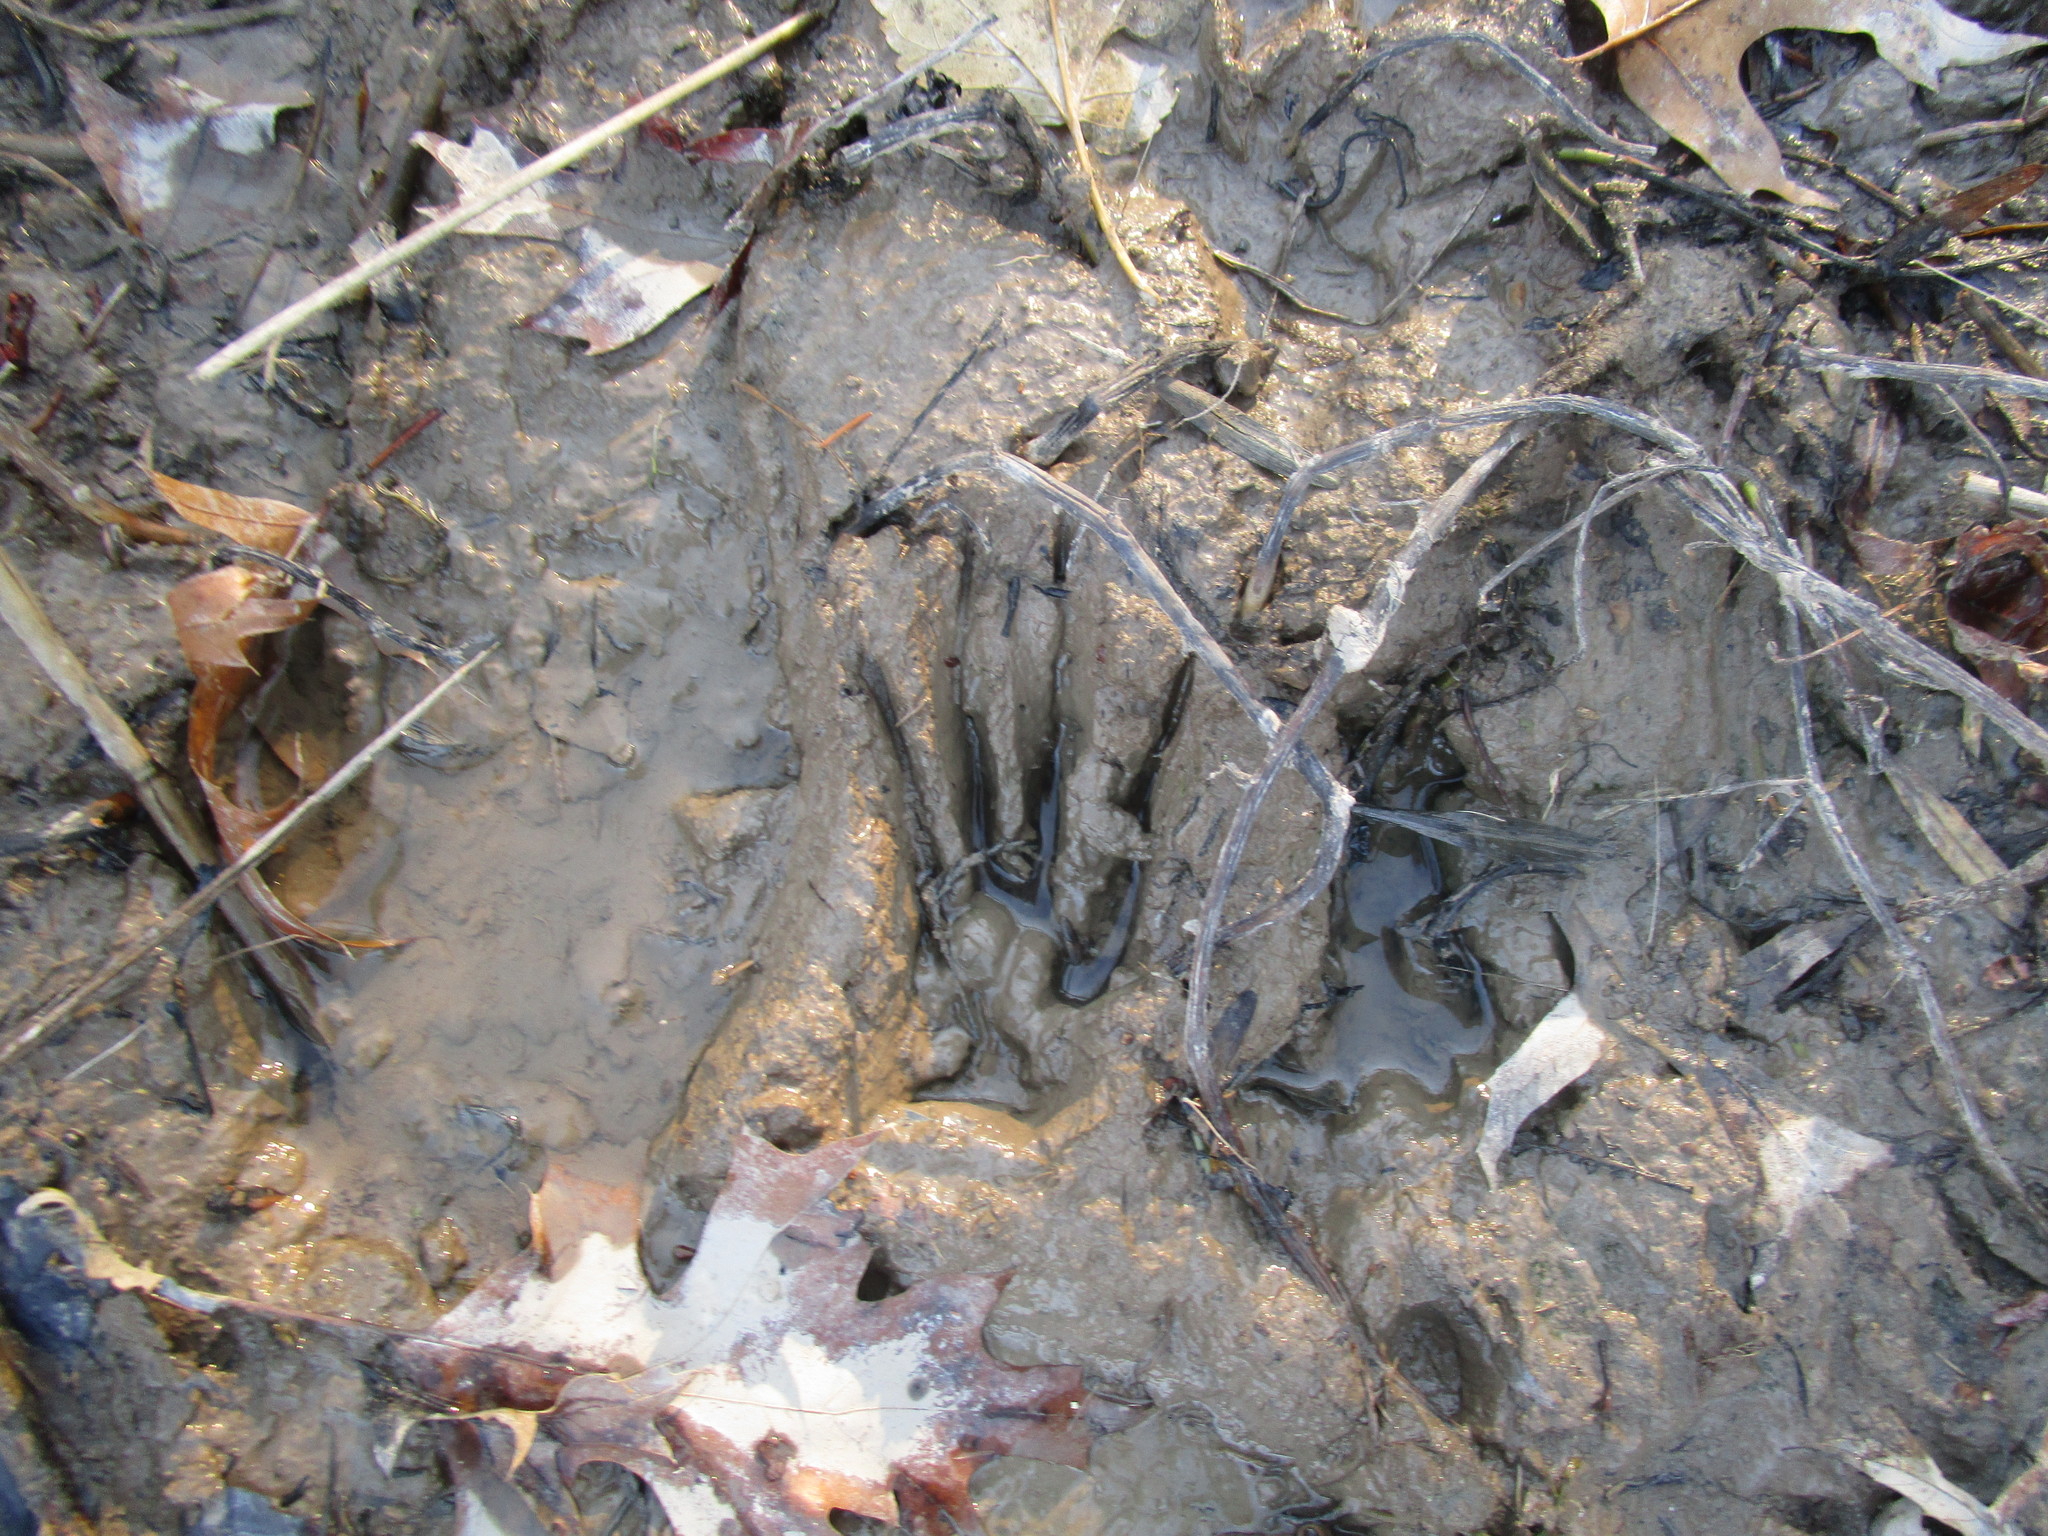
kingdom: Animalia
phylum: Chordata
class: Mammalia
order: Carnivora
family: Procyonidae
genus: Procyon
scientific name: Procyon lotor
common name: Raccoon
